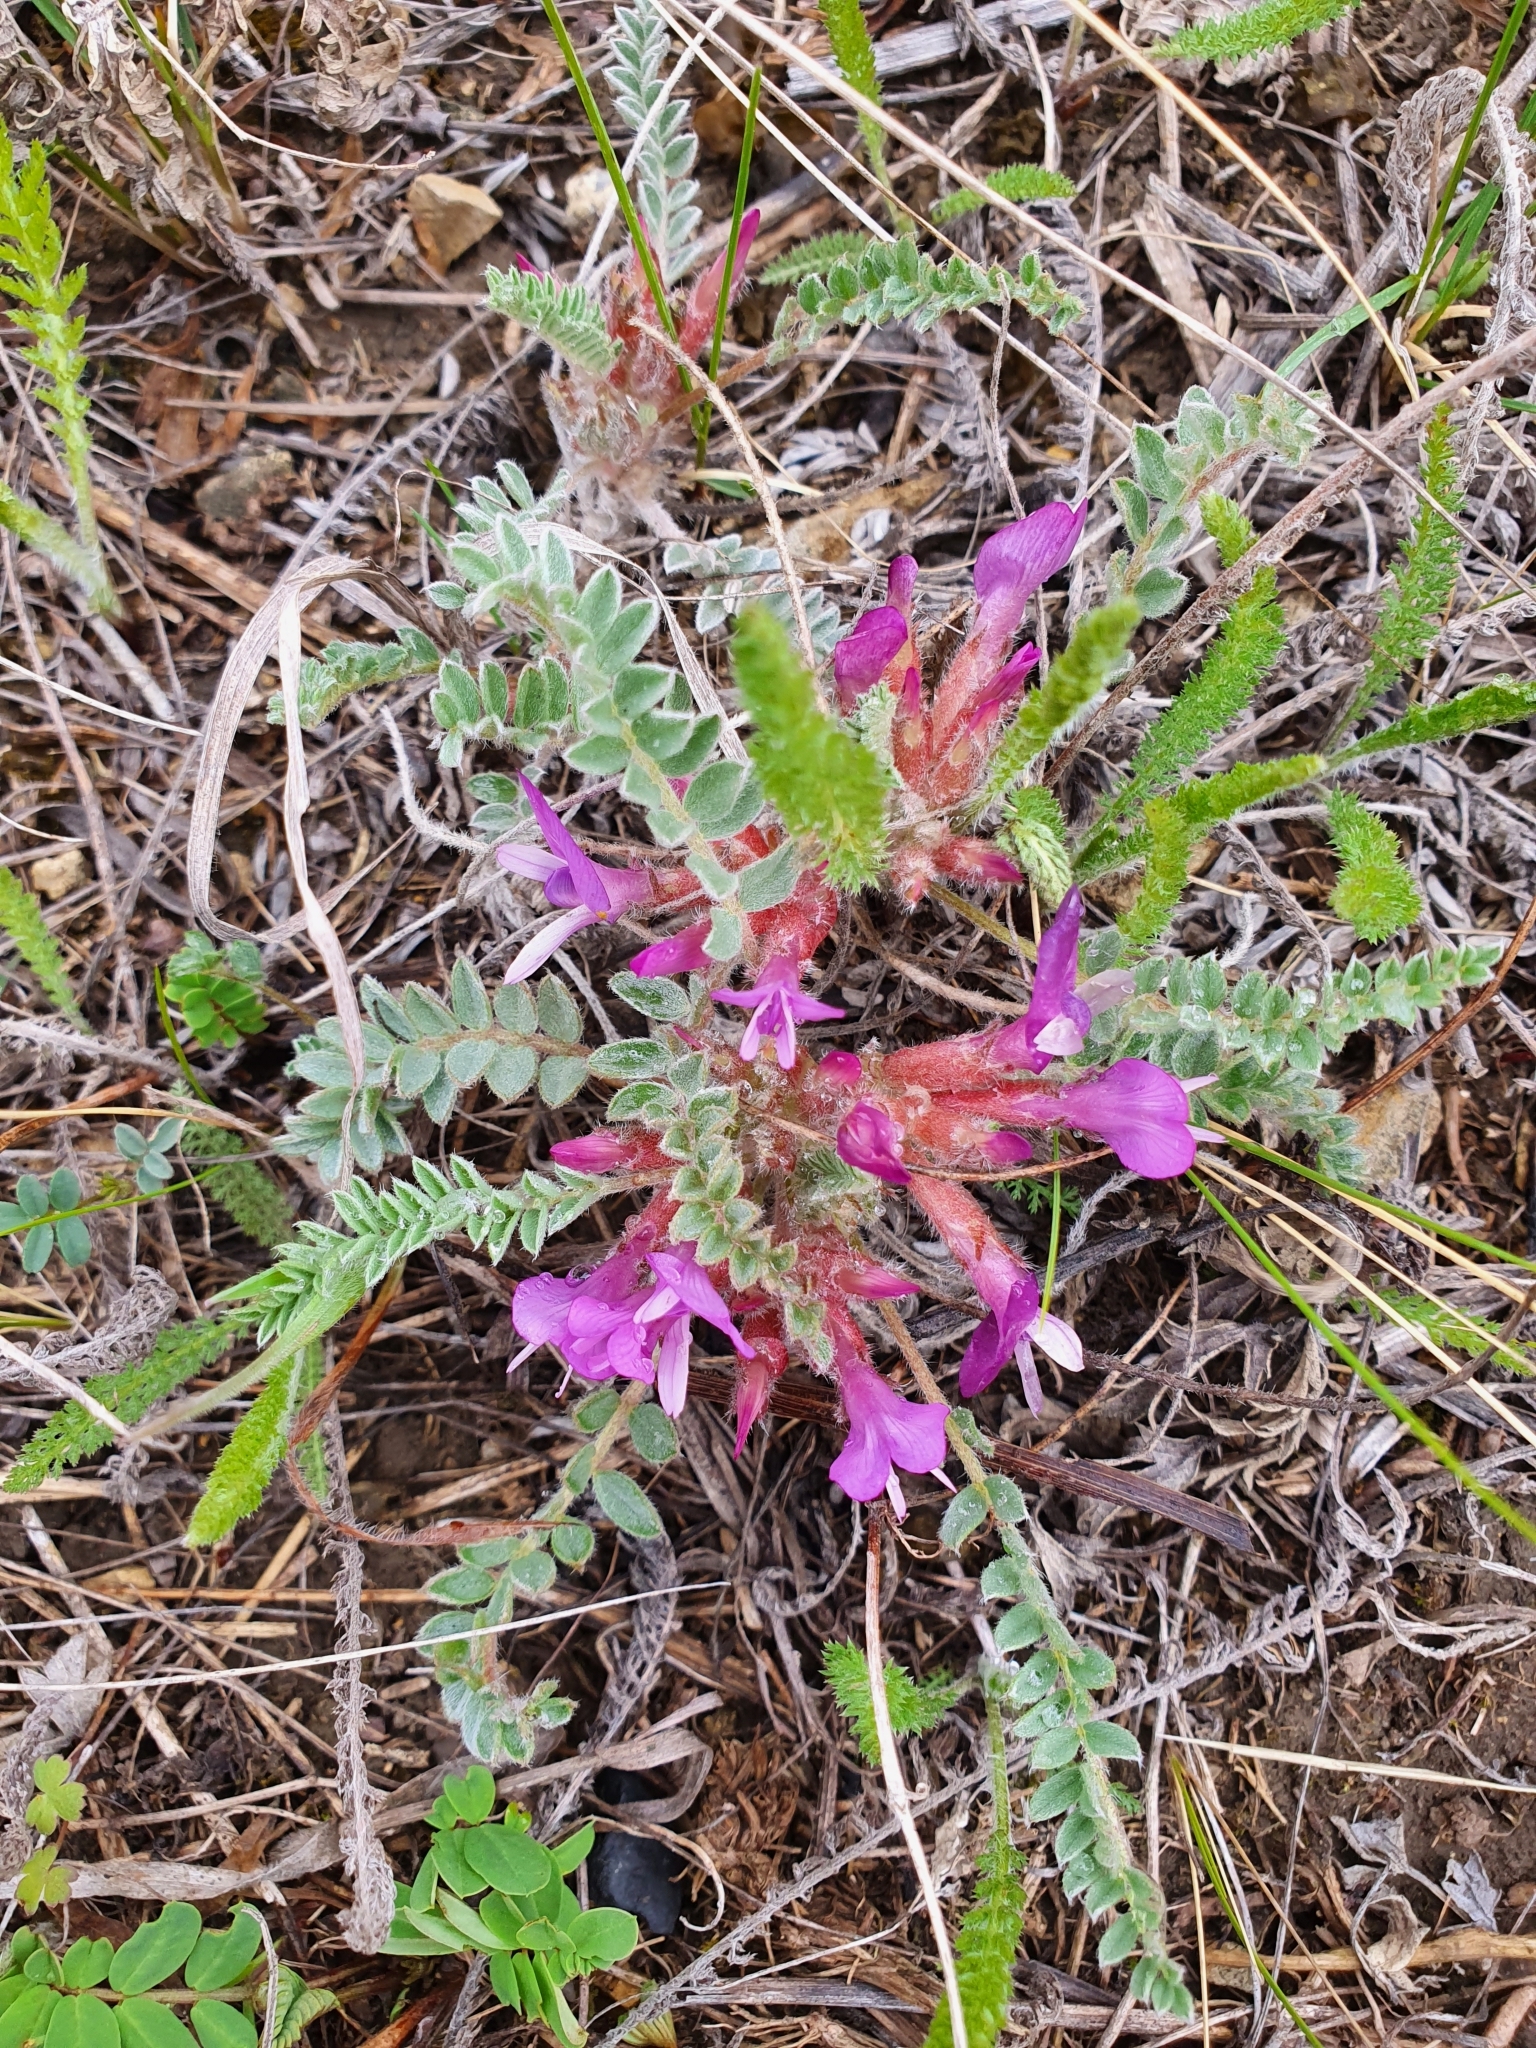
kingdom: Plantae
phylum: Tracheophyta
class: Magnoliopsida
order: Fabales
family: Fabaceae
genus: Astragalus
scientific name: Astragalus testiculatus
